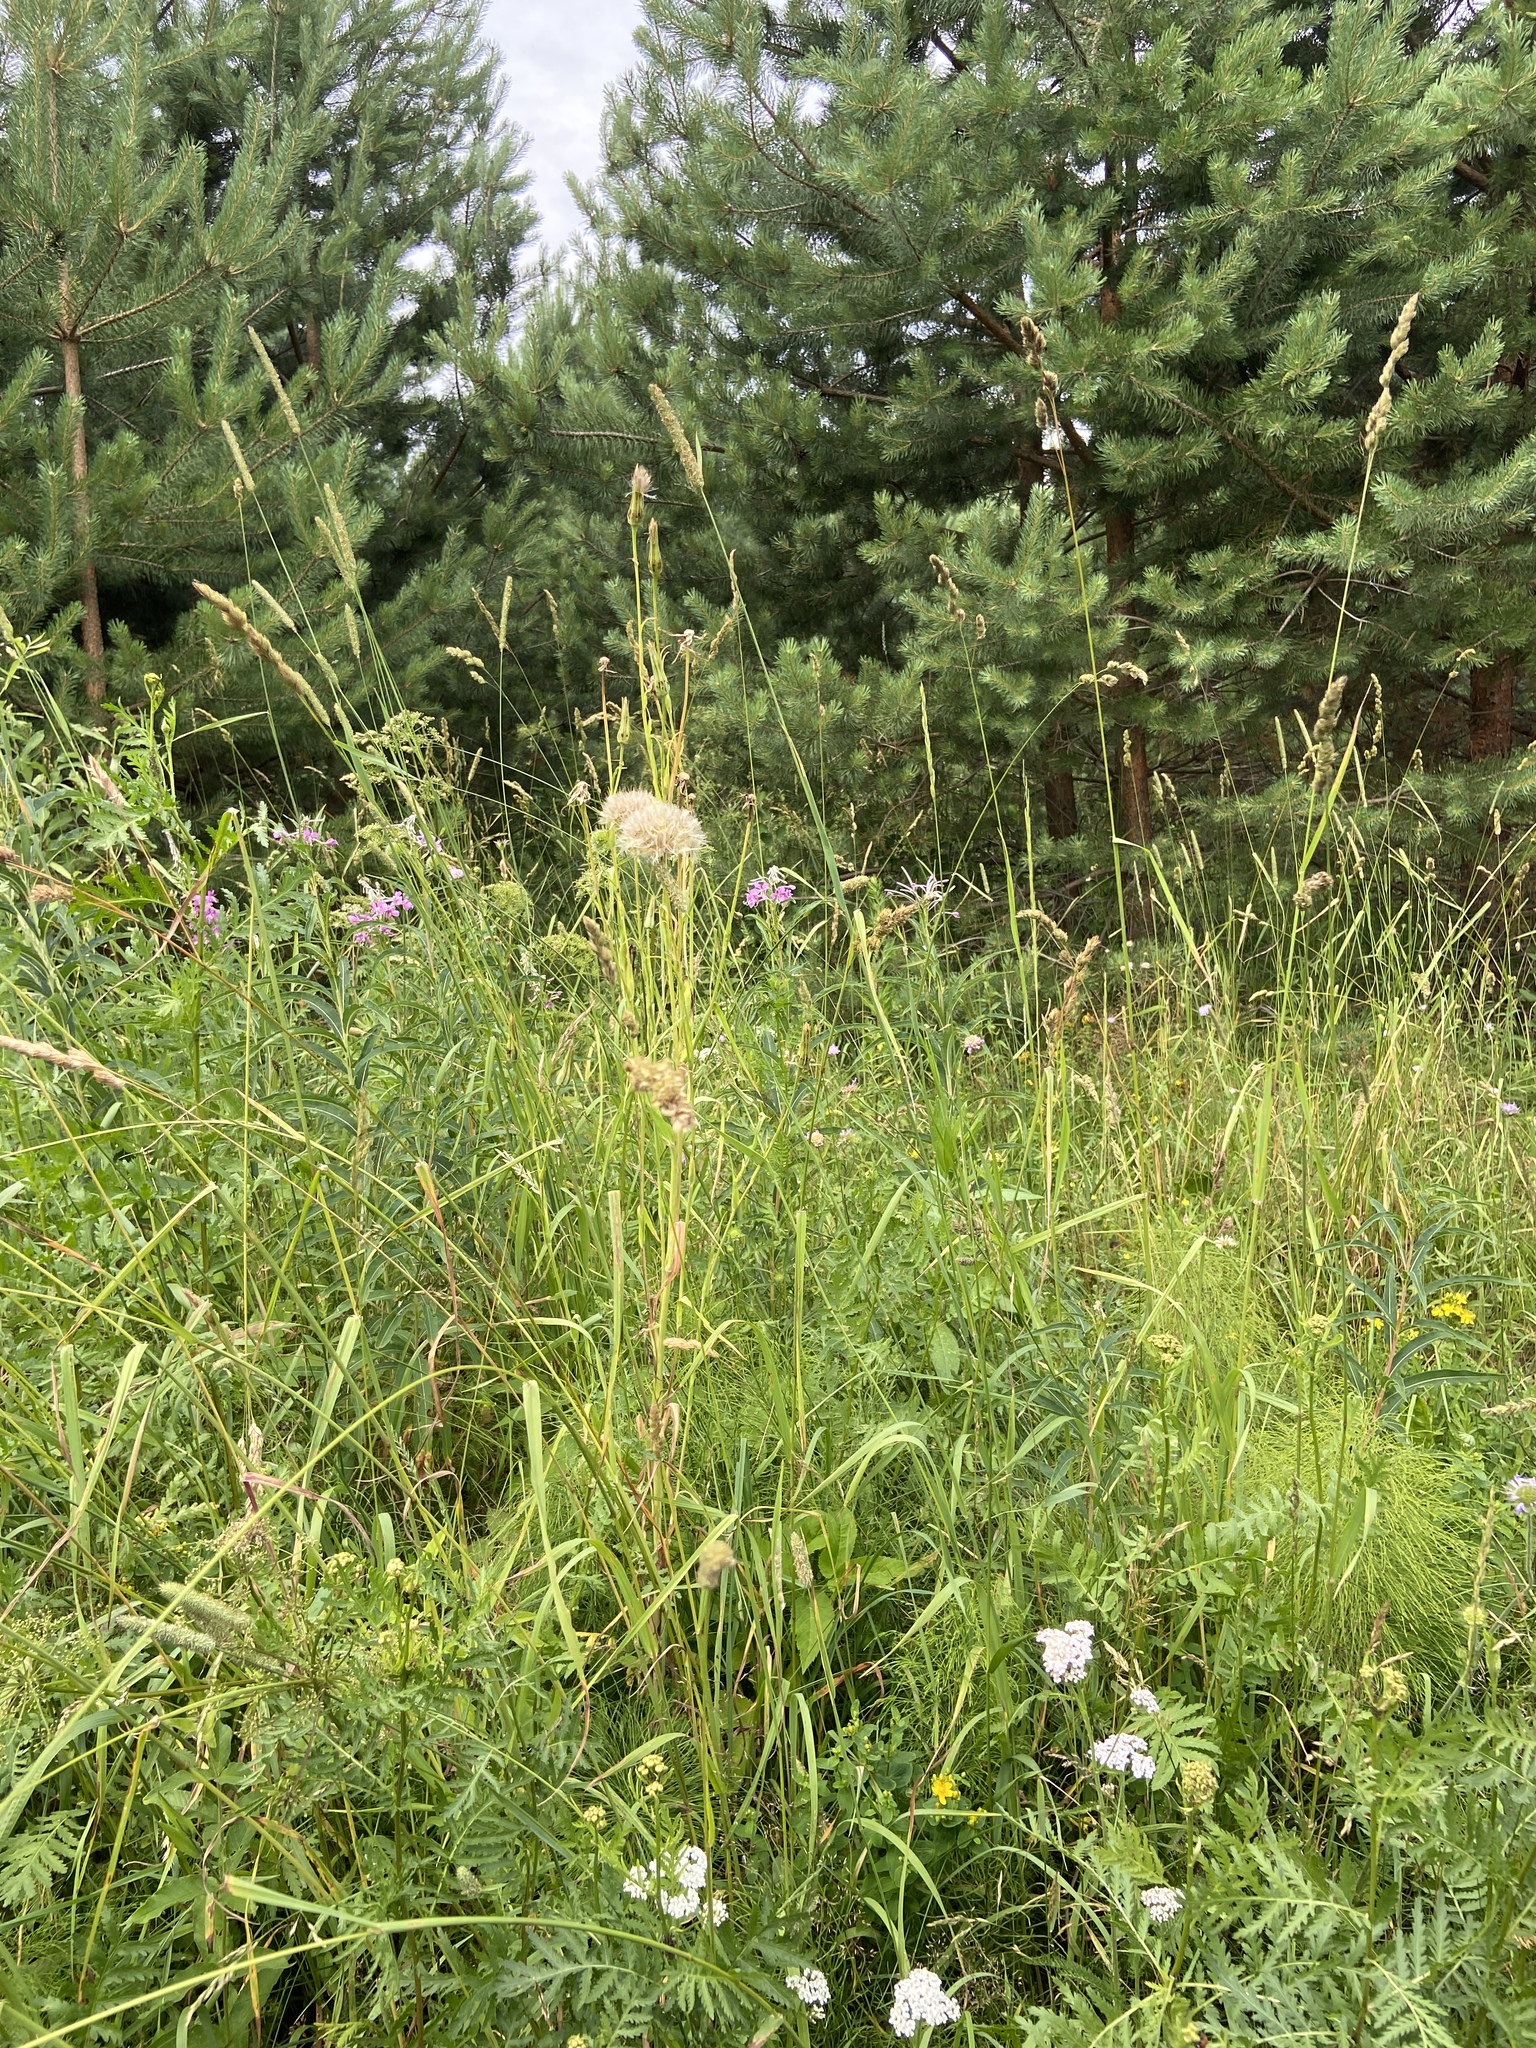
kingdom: Plantae
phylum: Tracheophyta
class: Liliopsida
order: Poales
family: Poaceae
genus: Dactylis
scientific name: Dactylis glomerata
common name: Orchardgrass
